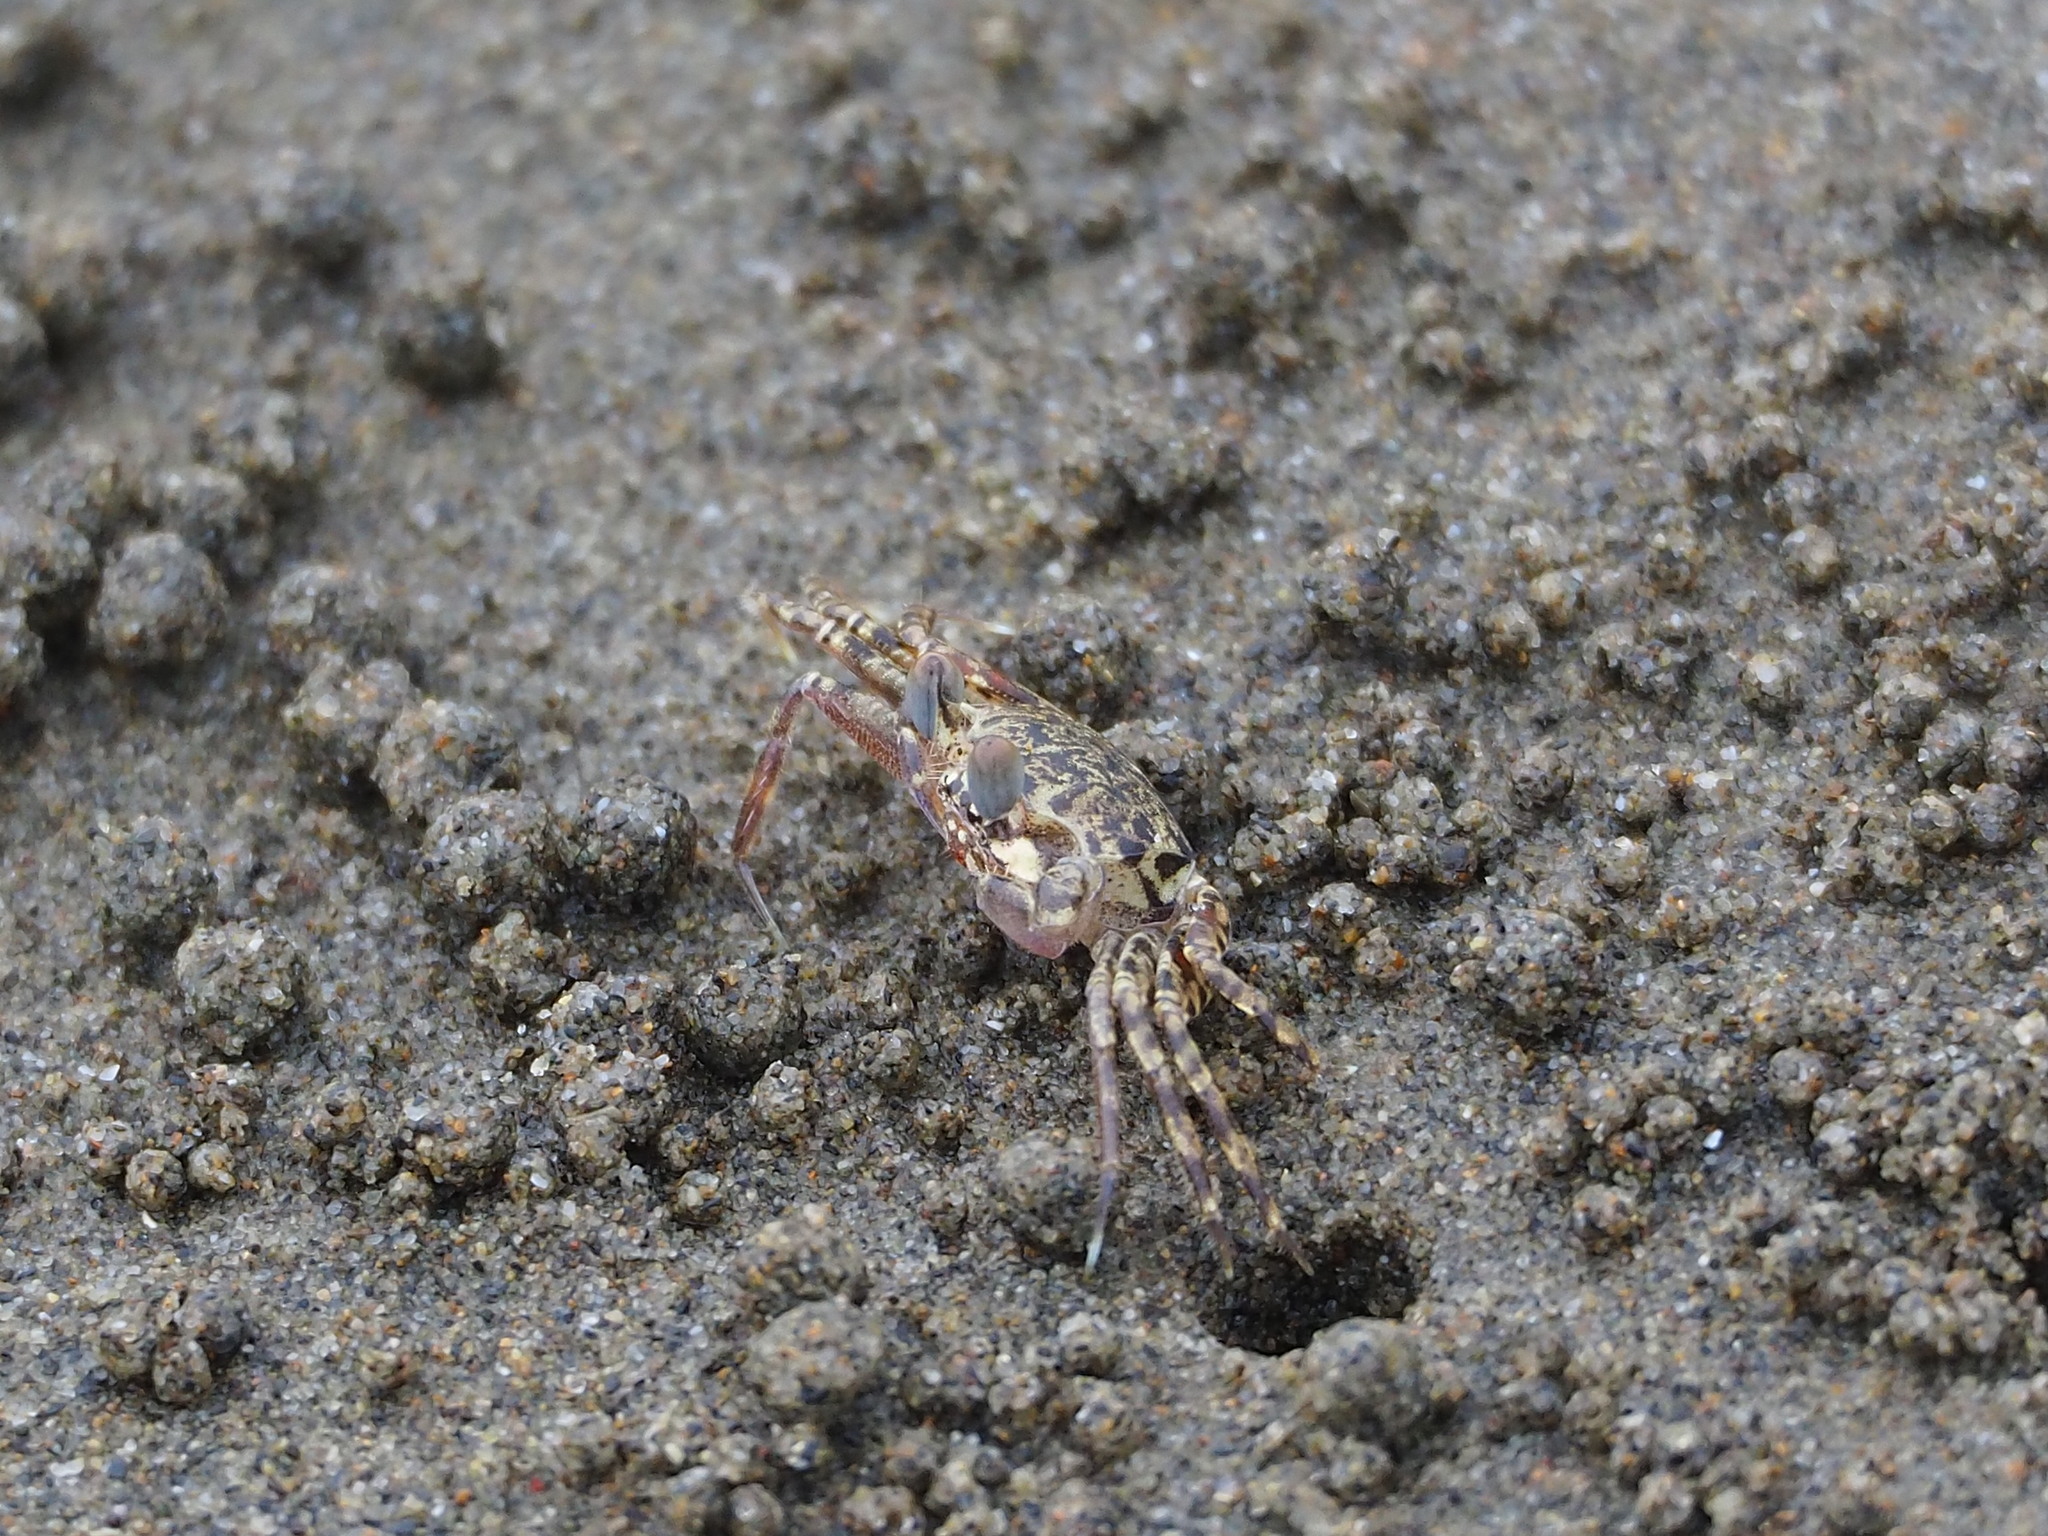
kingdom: Animalia
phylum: Arthropoda
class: Malacostraca
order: Decapoda
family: Ocypodidae
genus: Ocypode
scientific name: Ocypode ceratophthalmus
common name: Indo-pacific ghost crab
